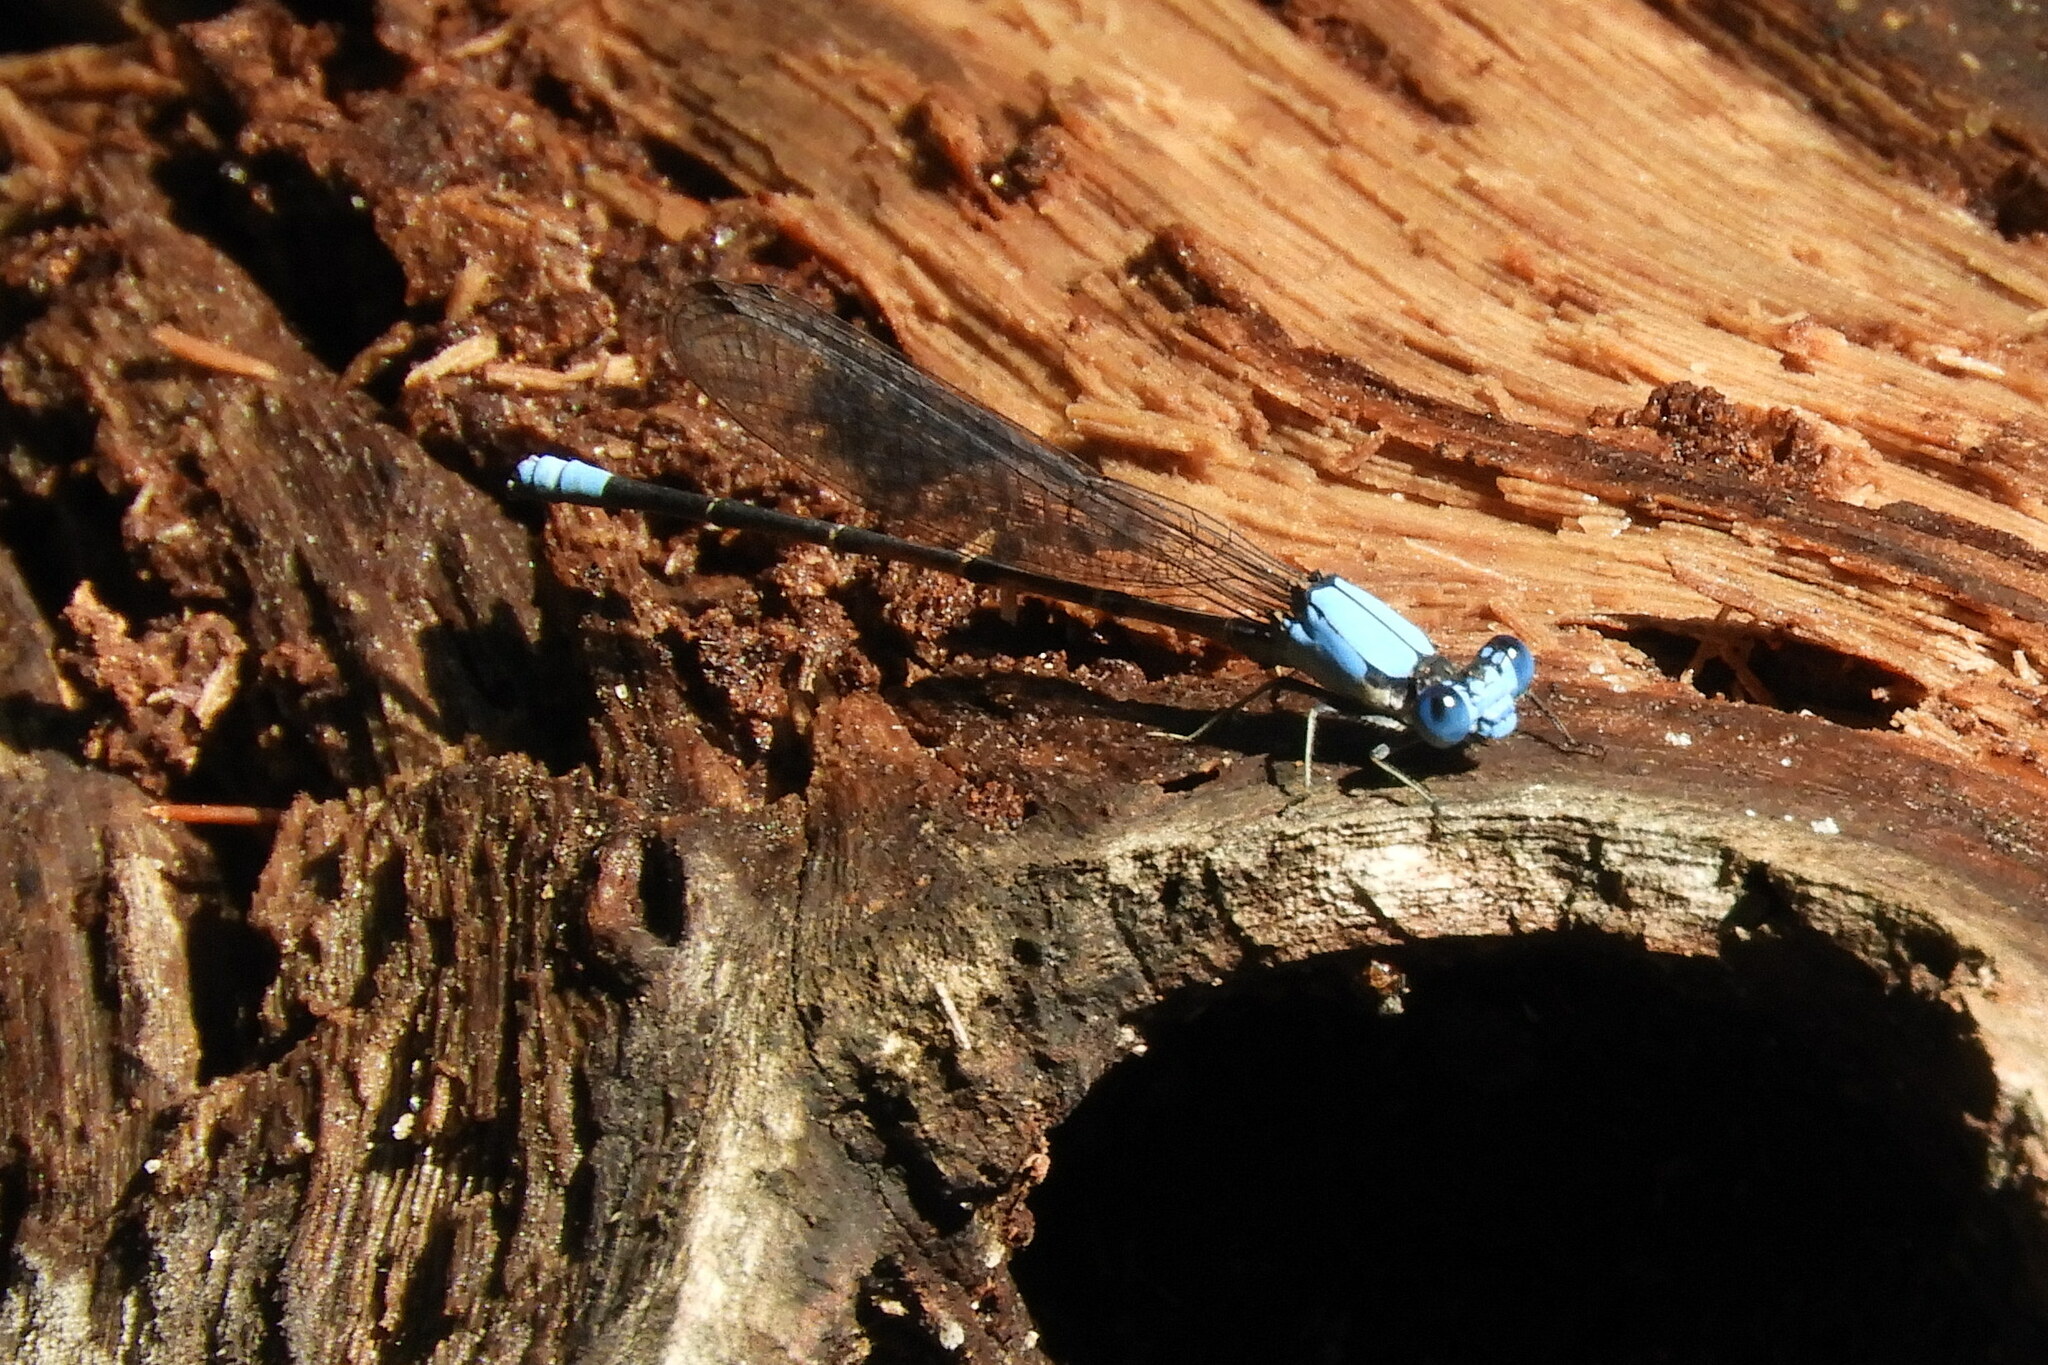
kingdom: Animalia
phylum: Arthropoda
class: Insecta
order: Odonata
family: Coenagrionidae
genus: Argia
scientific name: Argia apicalis
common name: Blue-fronted dancer
